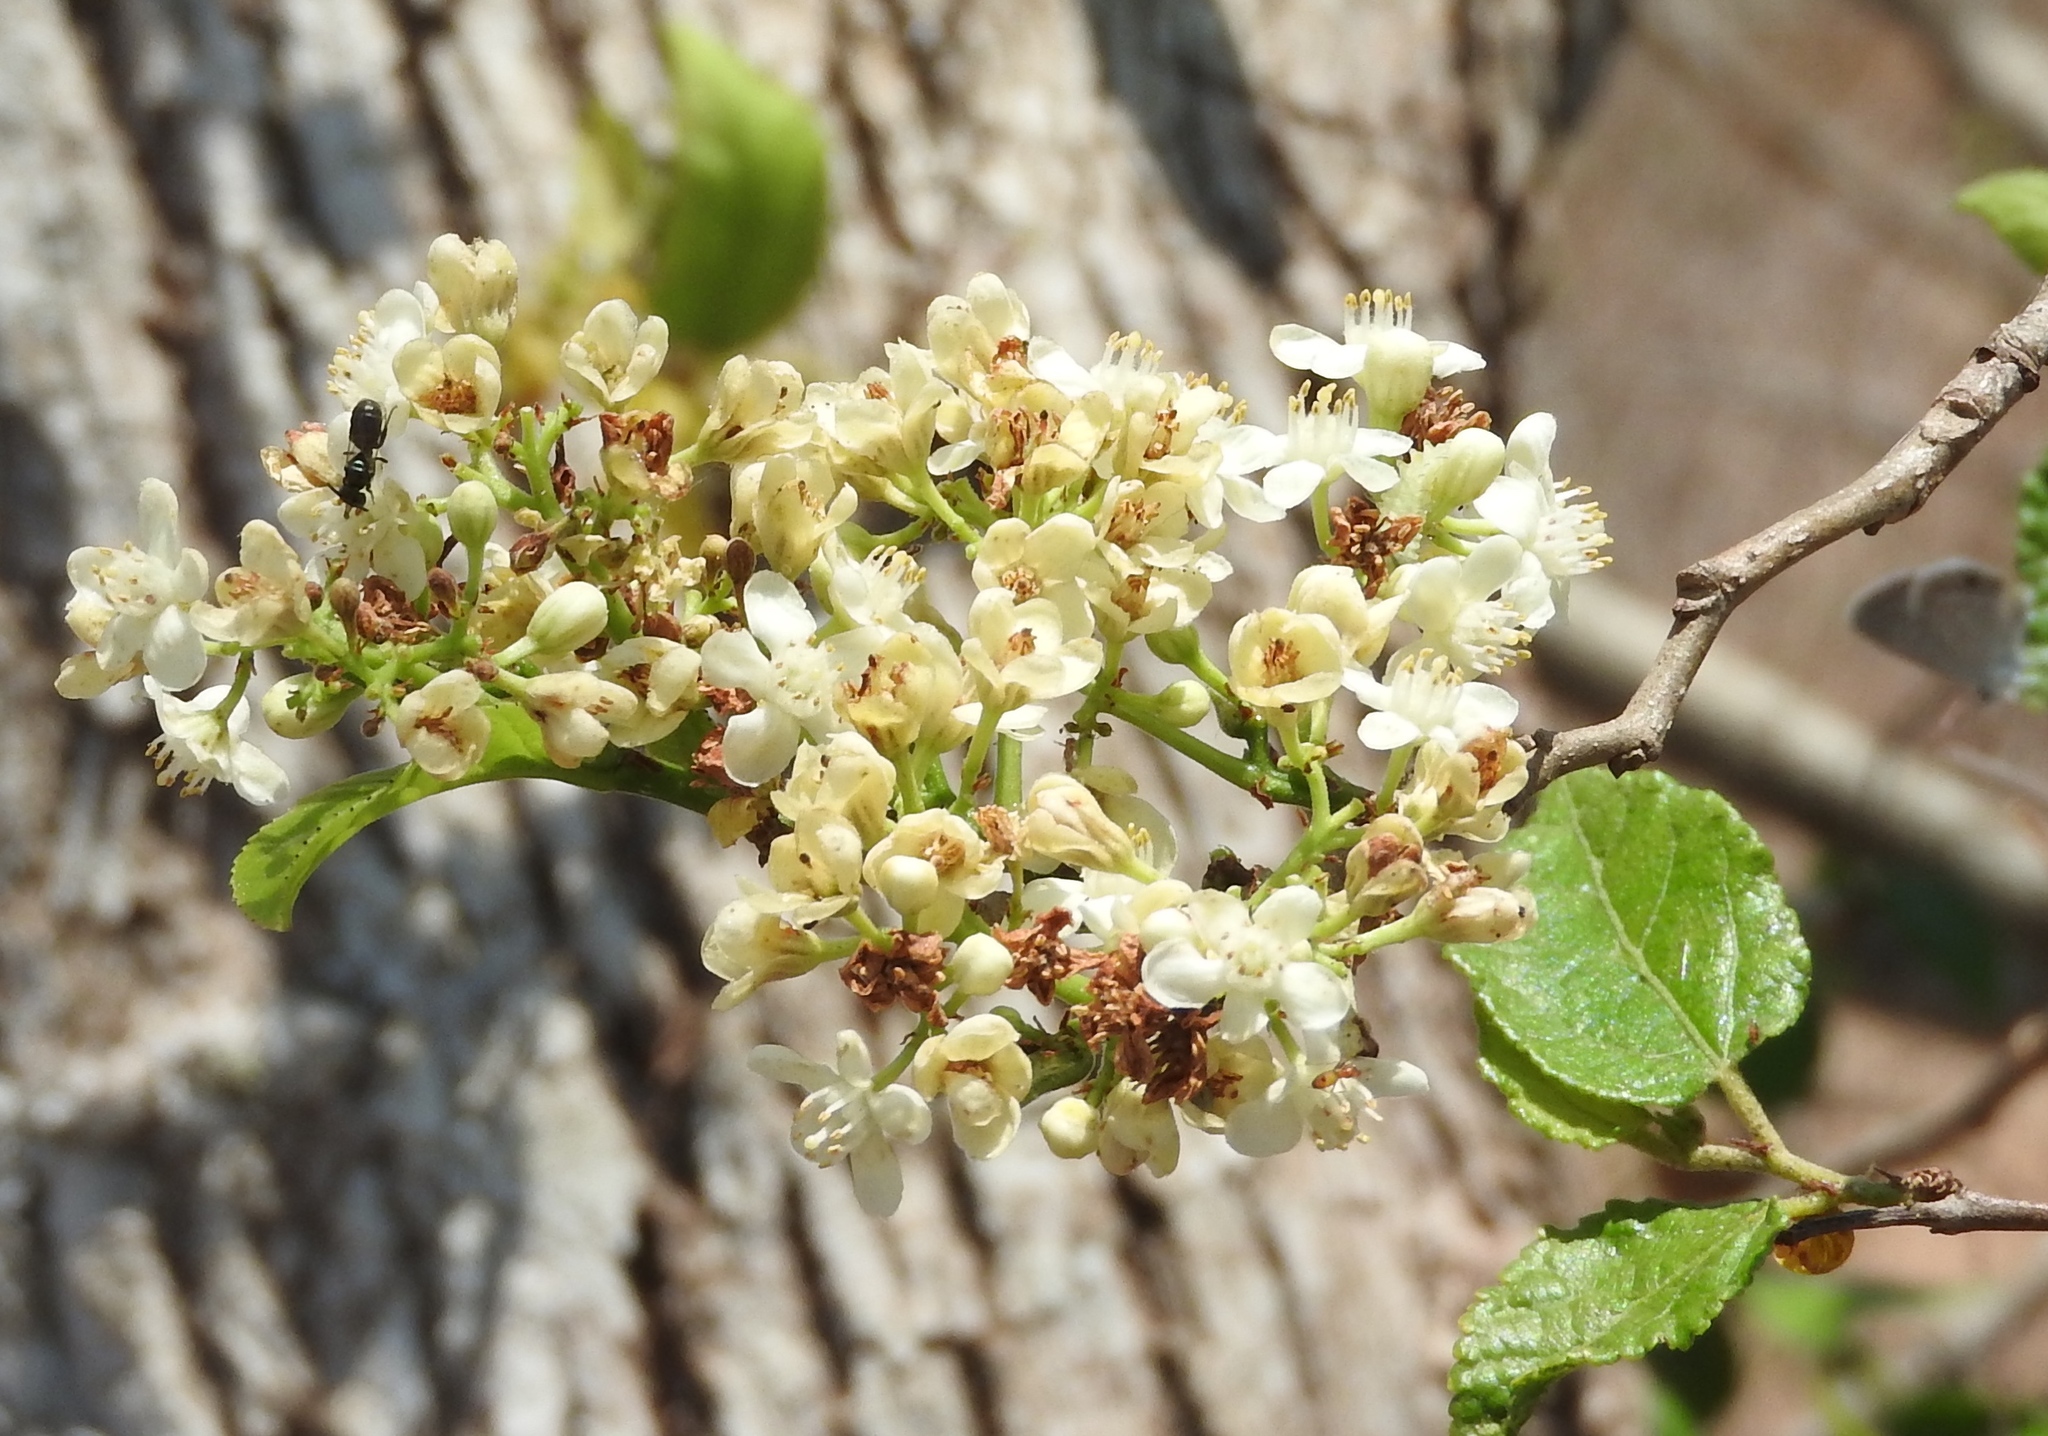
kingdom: Plantae
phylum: Tracheophyta
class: Magnoliopsida
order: Malpighiales
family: Salicaceae
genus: Casearia
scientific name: Casearia corymbosa
